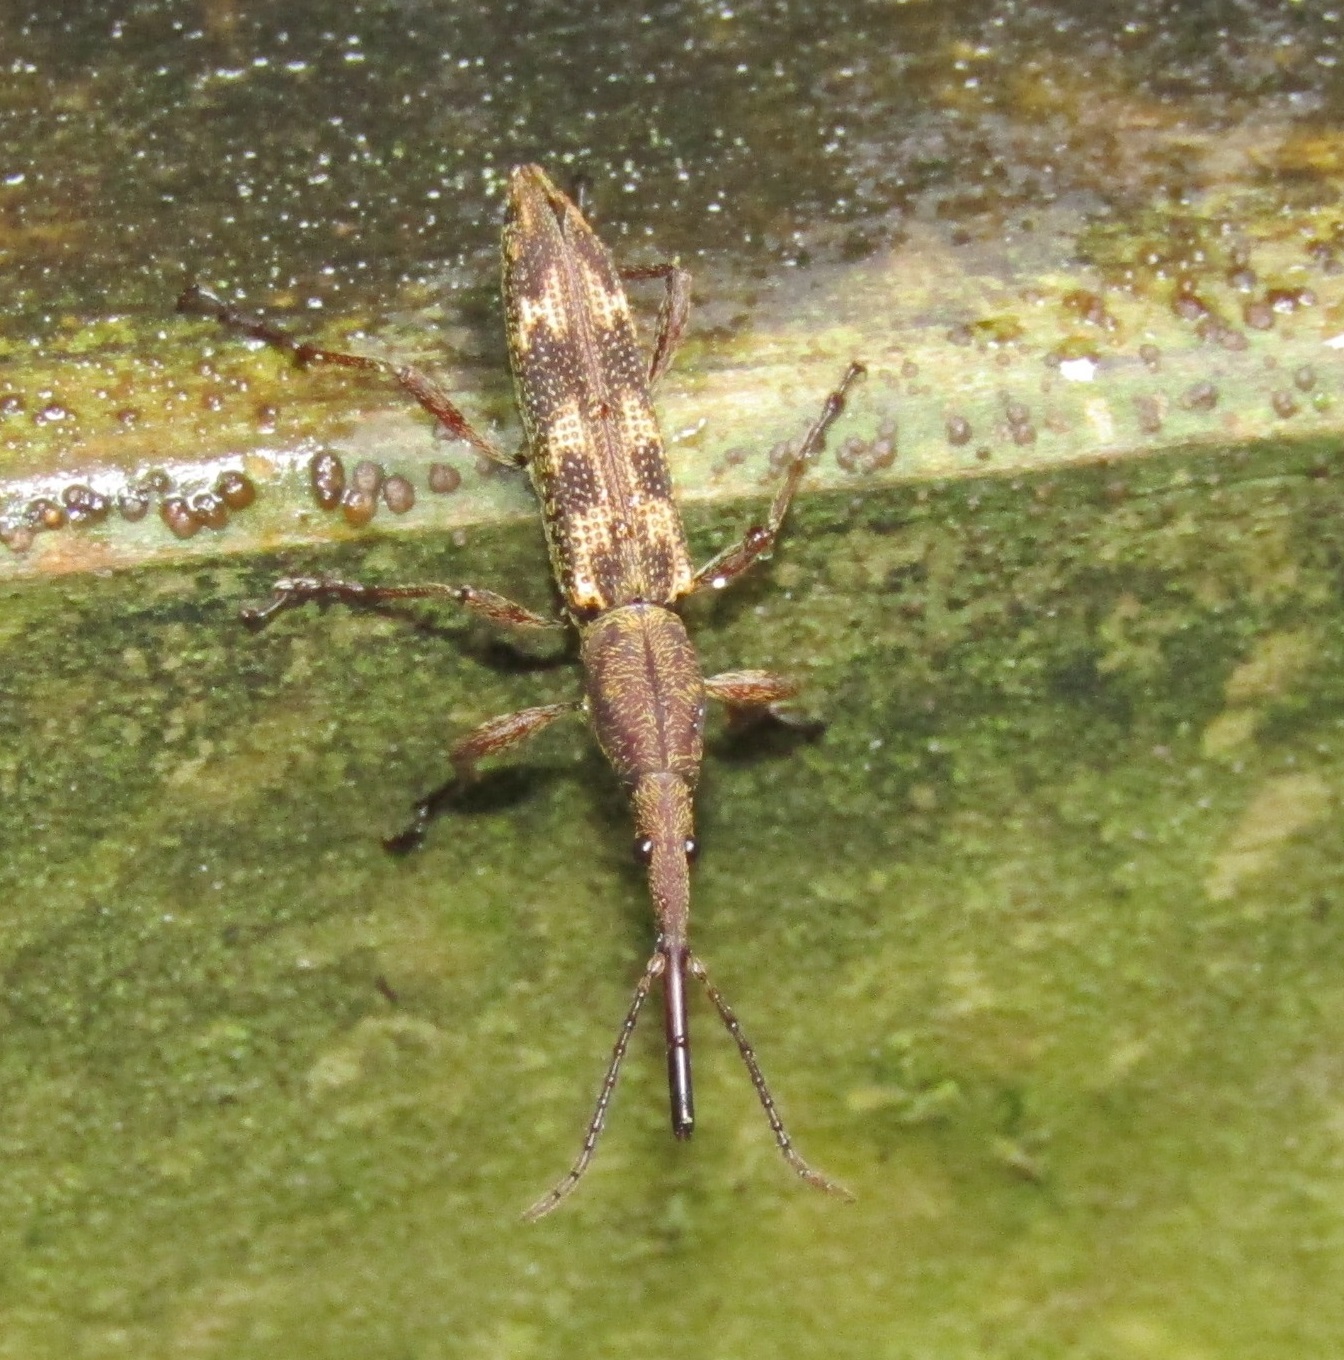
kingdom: Animalia
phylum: Arthropoda
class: Insecta
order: Coleoptera
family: Brentidae
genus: Lasiorhynchus
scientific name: Lasiorhynchus barbicornis
